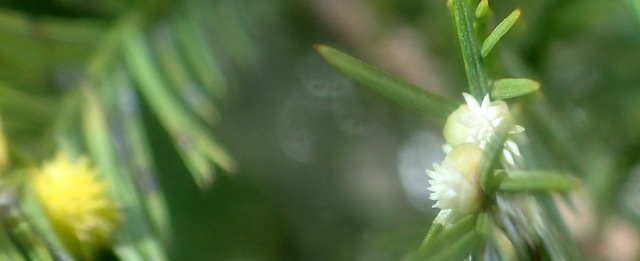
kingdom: Animalia
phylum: Arthropoda
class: Insecta
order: Diptera
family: Cecidomyiidae
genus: Taxodiomyia
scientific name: Taxodiomyia
